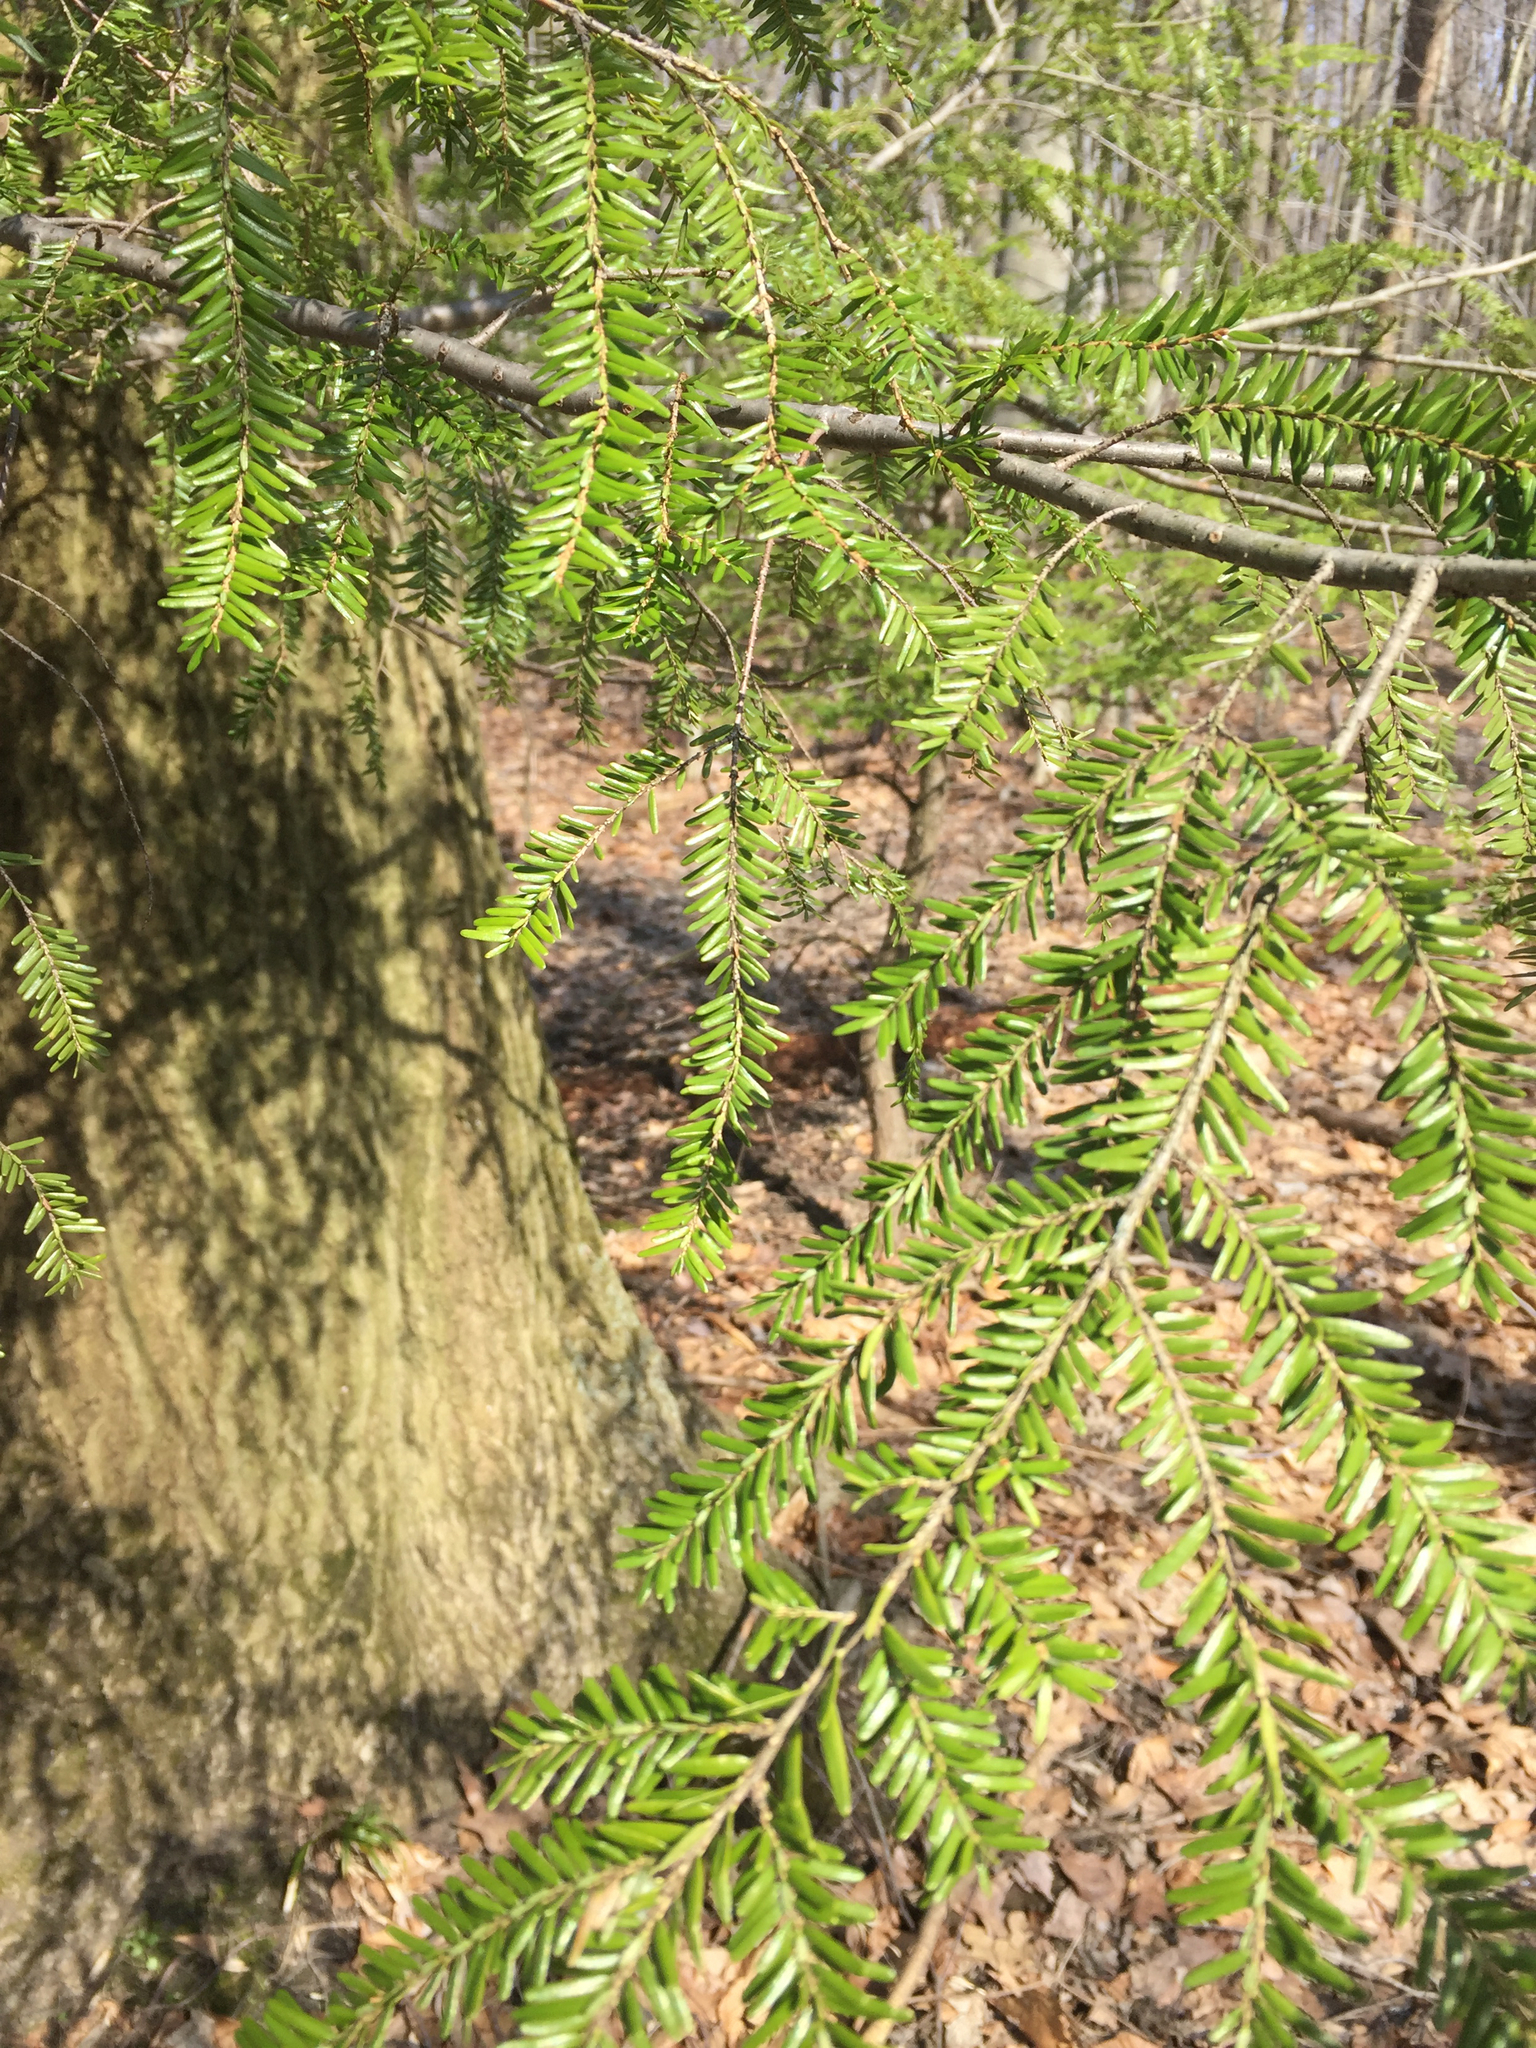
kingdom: Plantae
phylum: Tracheophyta
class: Pinopsida
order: Pinales
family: Pinaceae
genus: Tsuga
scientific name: Tsuga canadensis
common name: Eastern hemlock
